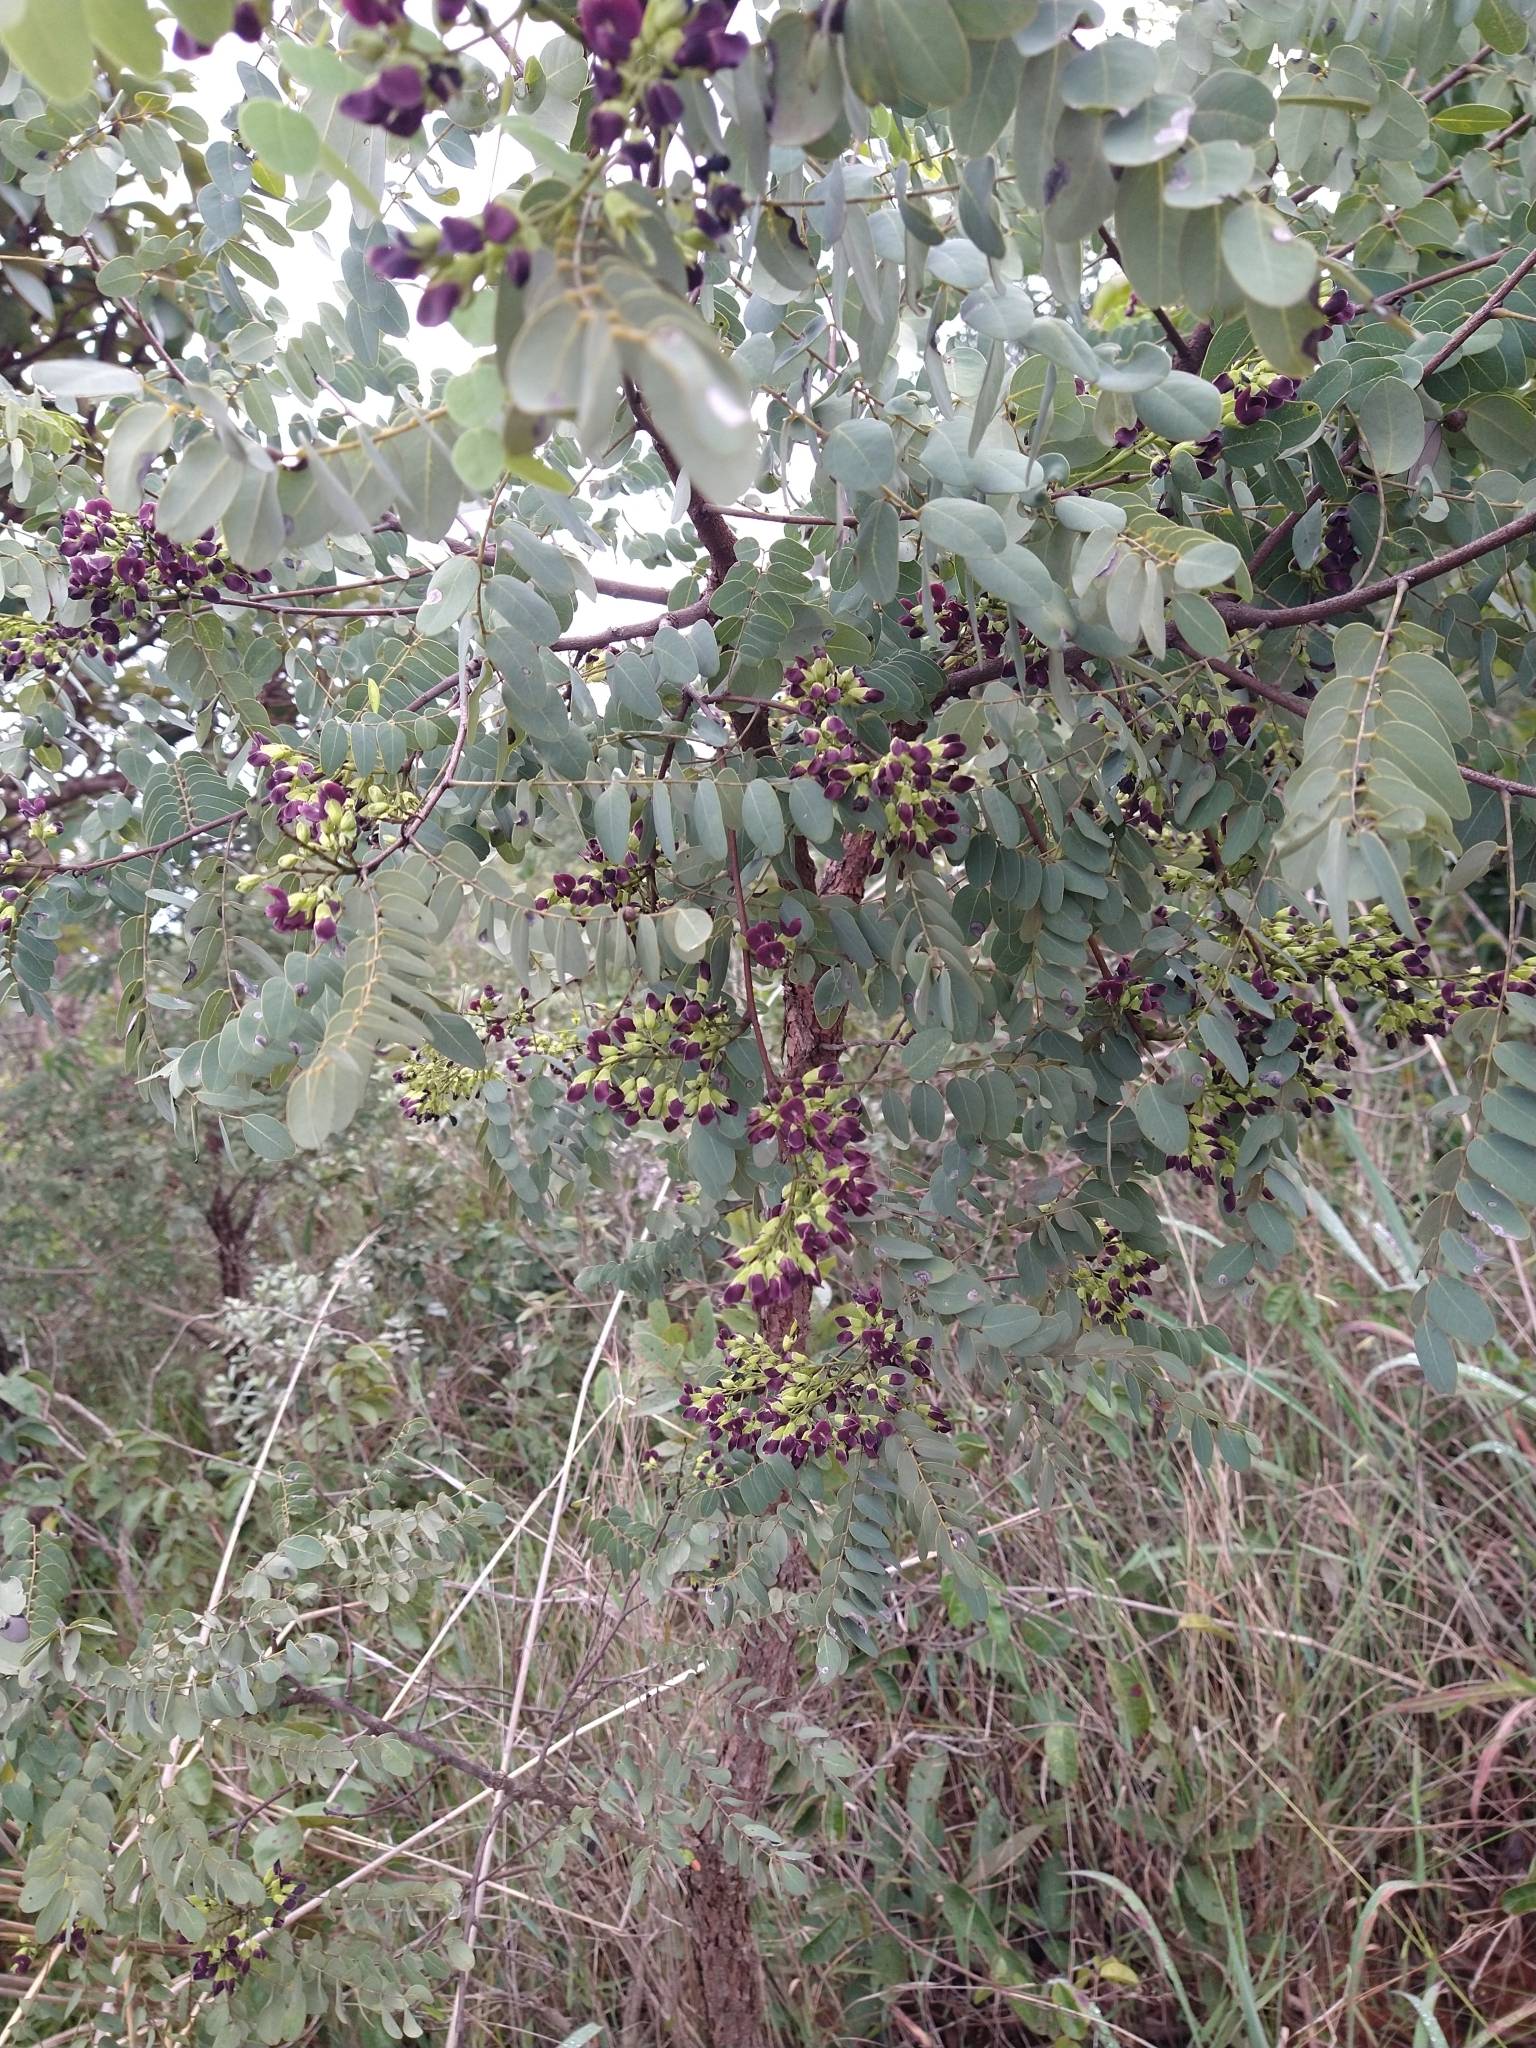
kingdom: Plantae
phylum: Tracheophyta
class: Magnoliopsida
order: Fabales
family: Fabaceae
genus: Dalbergia
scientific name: Dalbergia miscolobium
